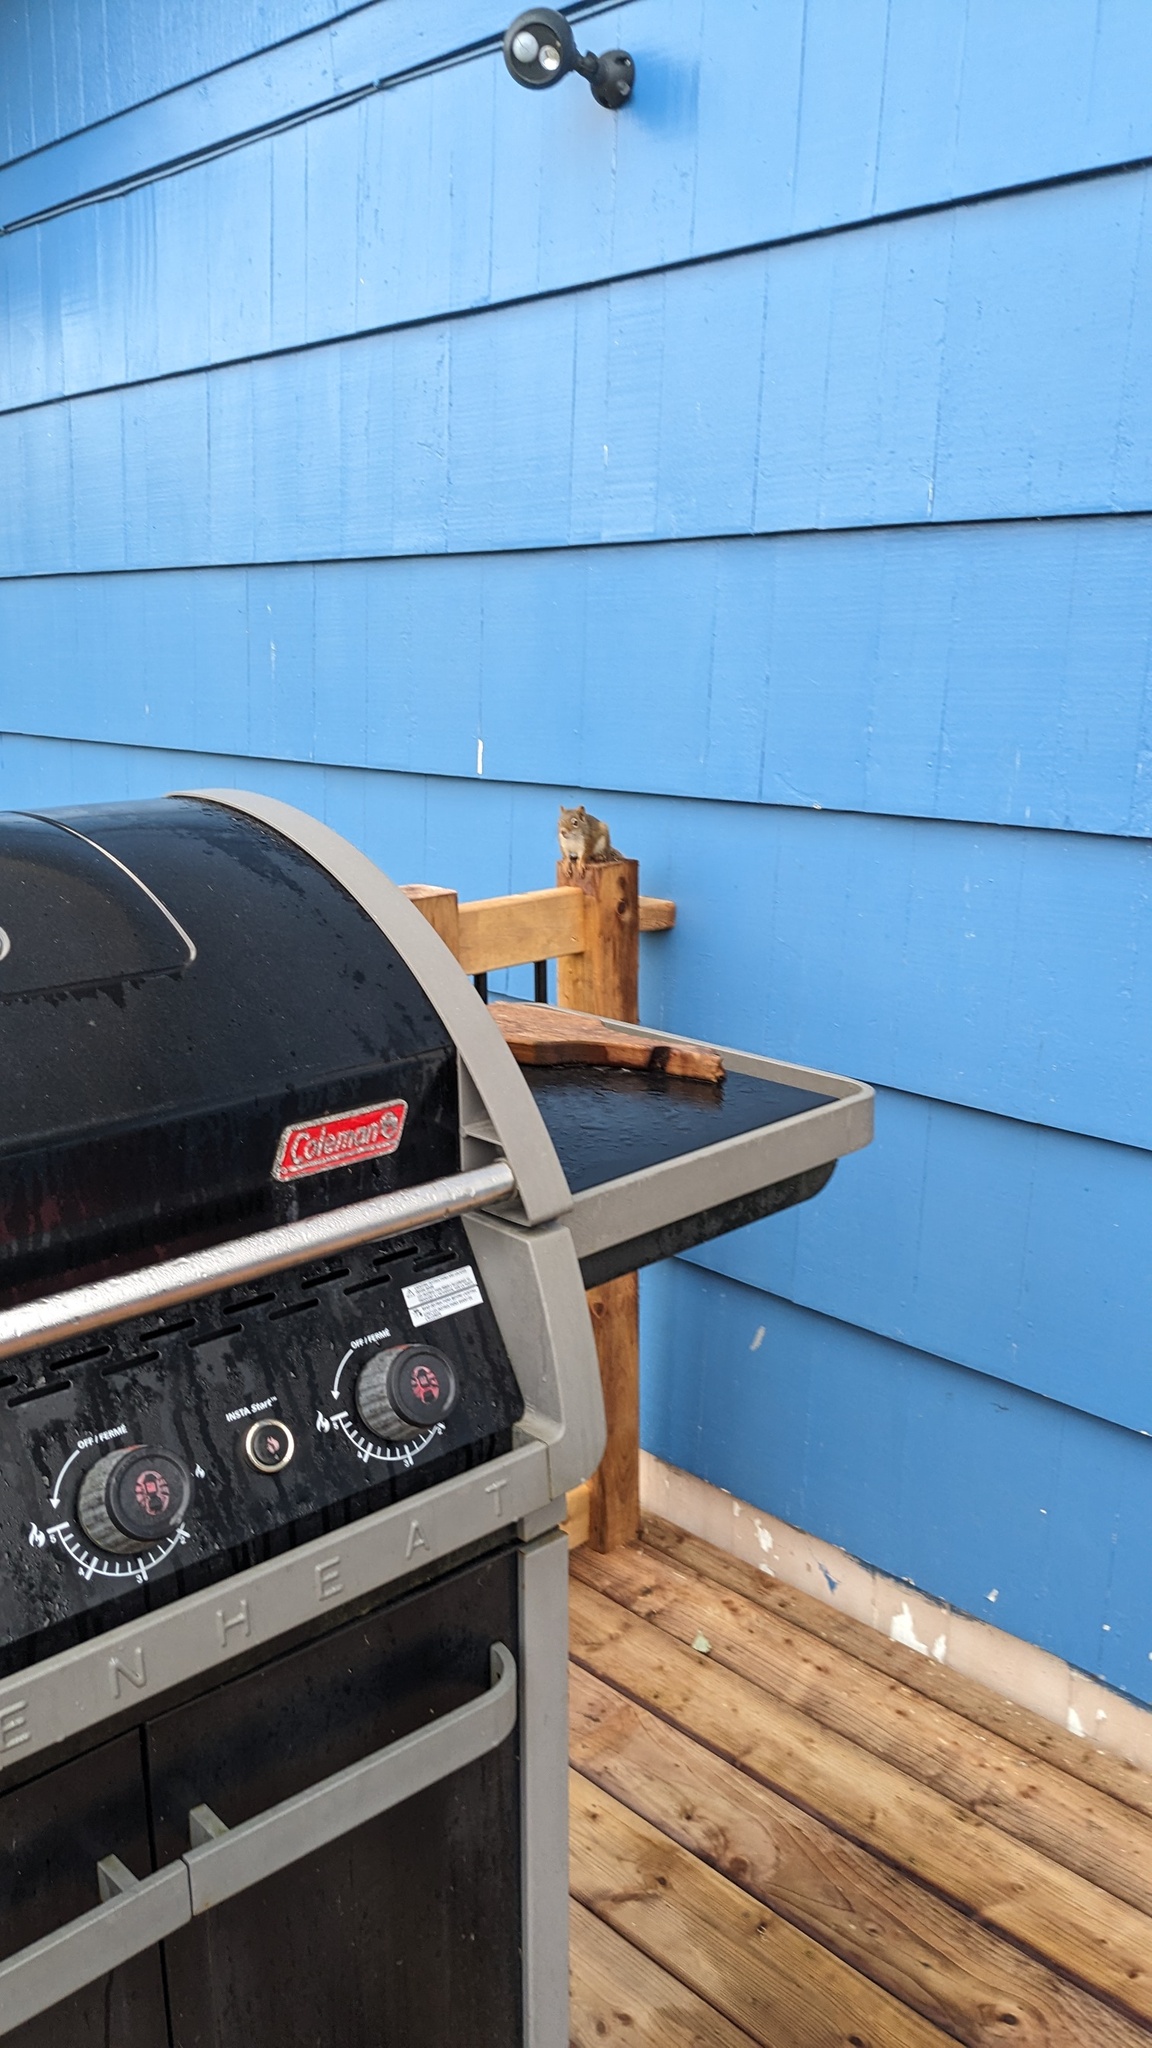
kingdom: Animalia
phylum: Chordata
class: Mammalia
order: Rodentia
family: Sciuridae
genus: Tamiasciurus
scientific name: Tamiasciurus hudsonicus
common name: Red squirrel
